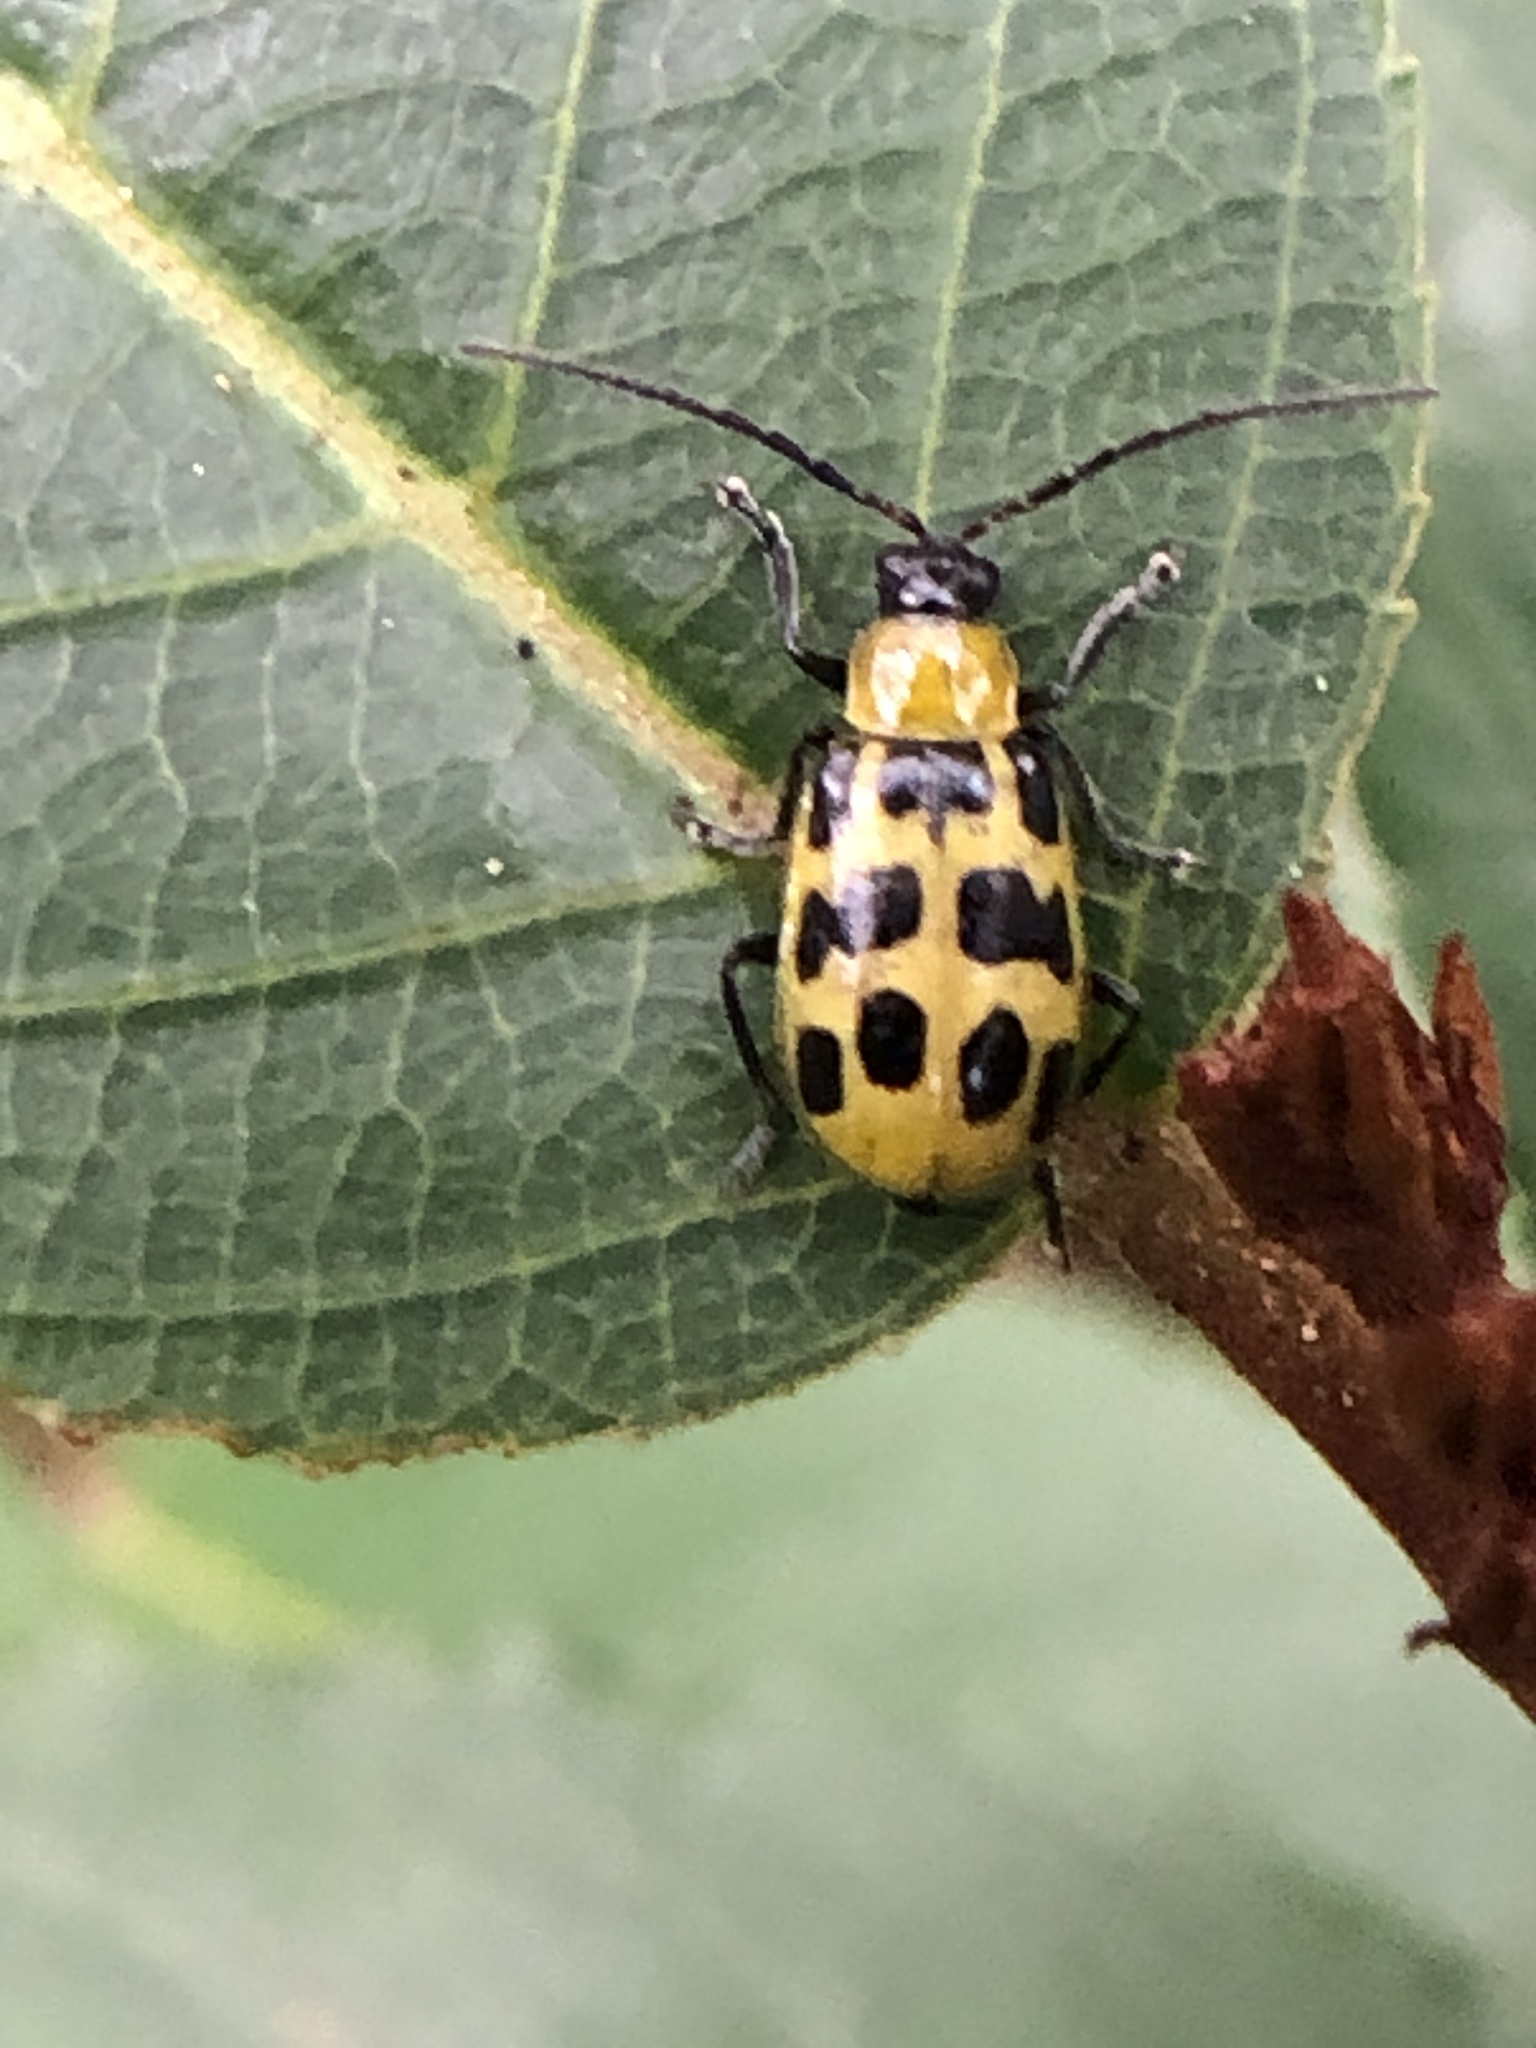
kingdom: Animalia
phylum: Arthropoda
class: Insecta
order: Coleoptera
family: Chrysomelidae
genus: Diabrotica
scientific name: Diabrotica undecimpunctata
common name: Spotted cucumber beetle
